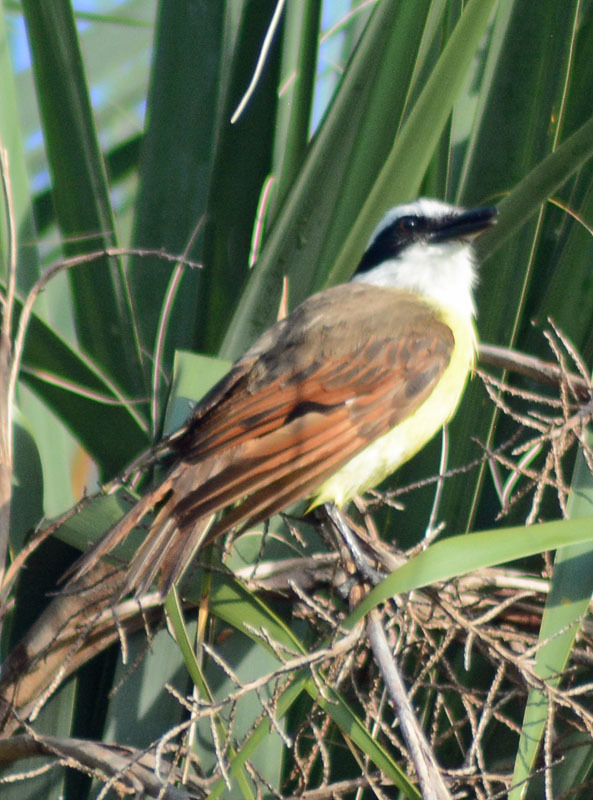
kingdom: Animalia
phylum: Chordata
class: Aves
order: Passeriformes
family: Tyrannidae
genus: Pitangus
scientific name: Pitangus sulphuratus
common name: Great kiskadee
